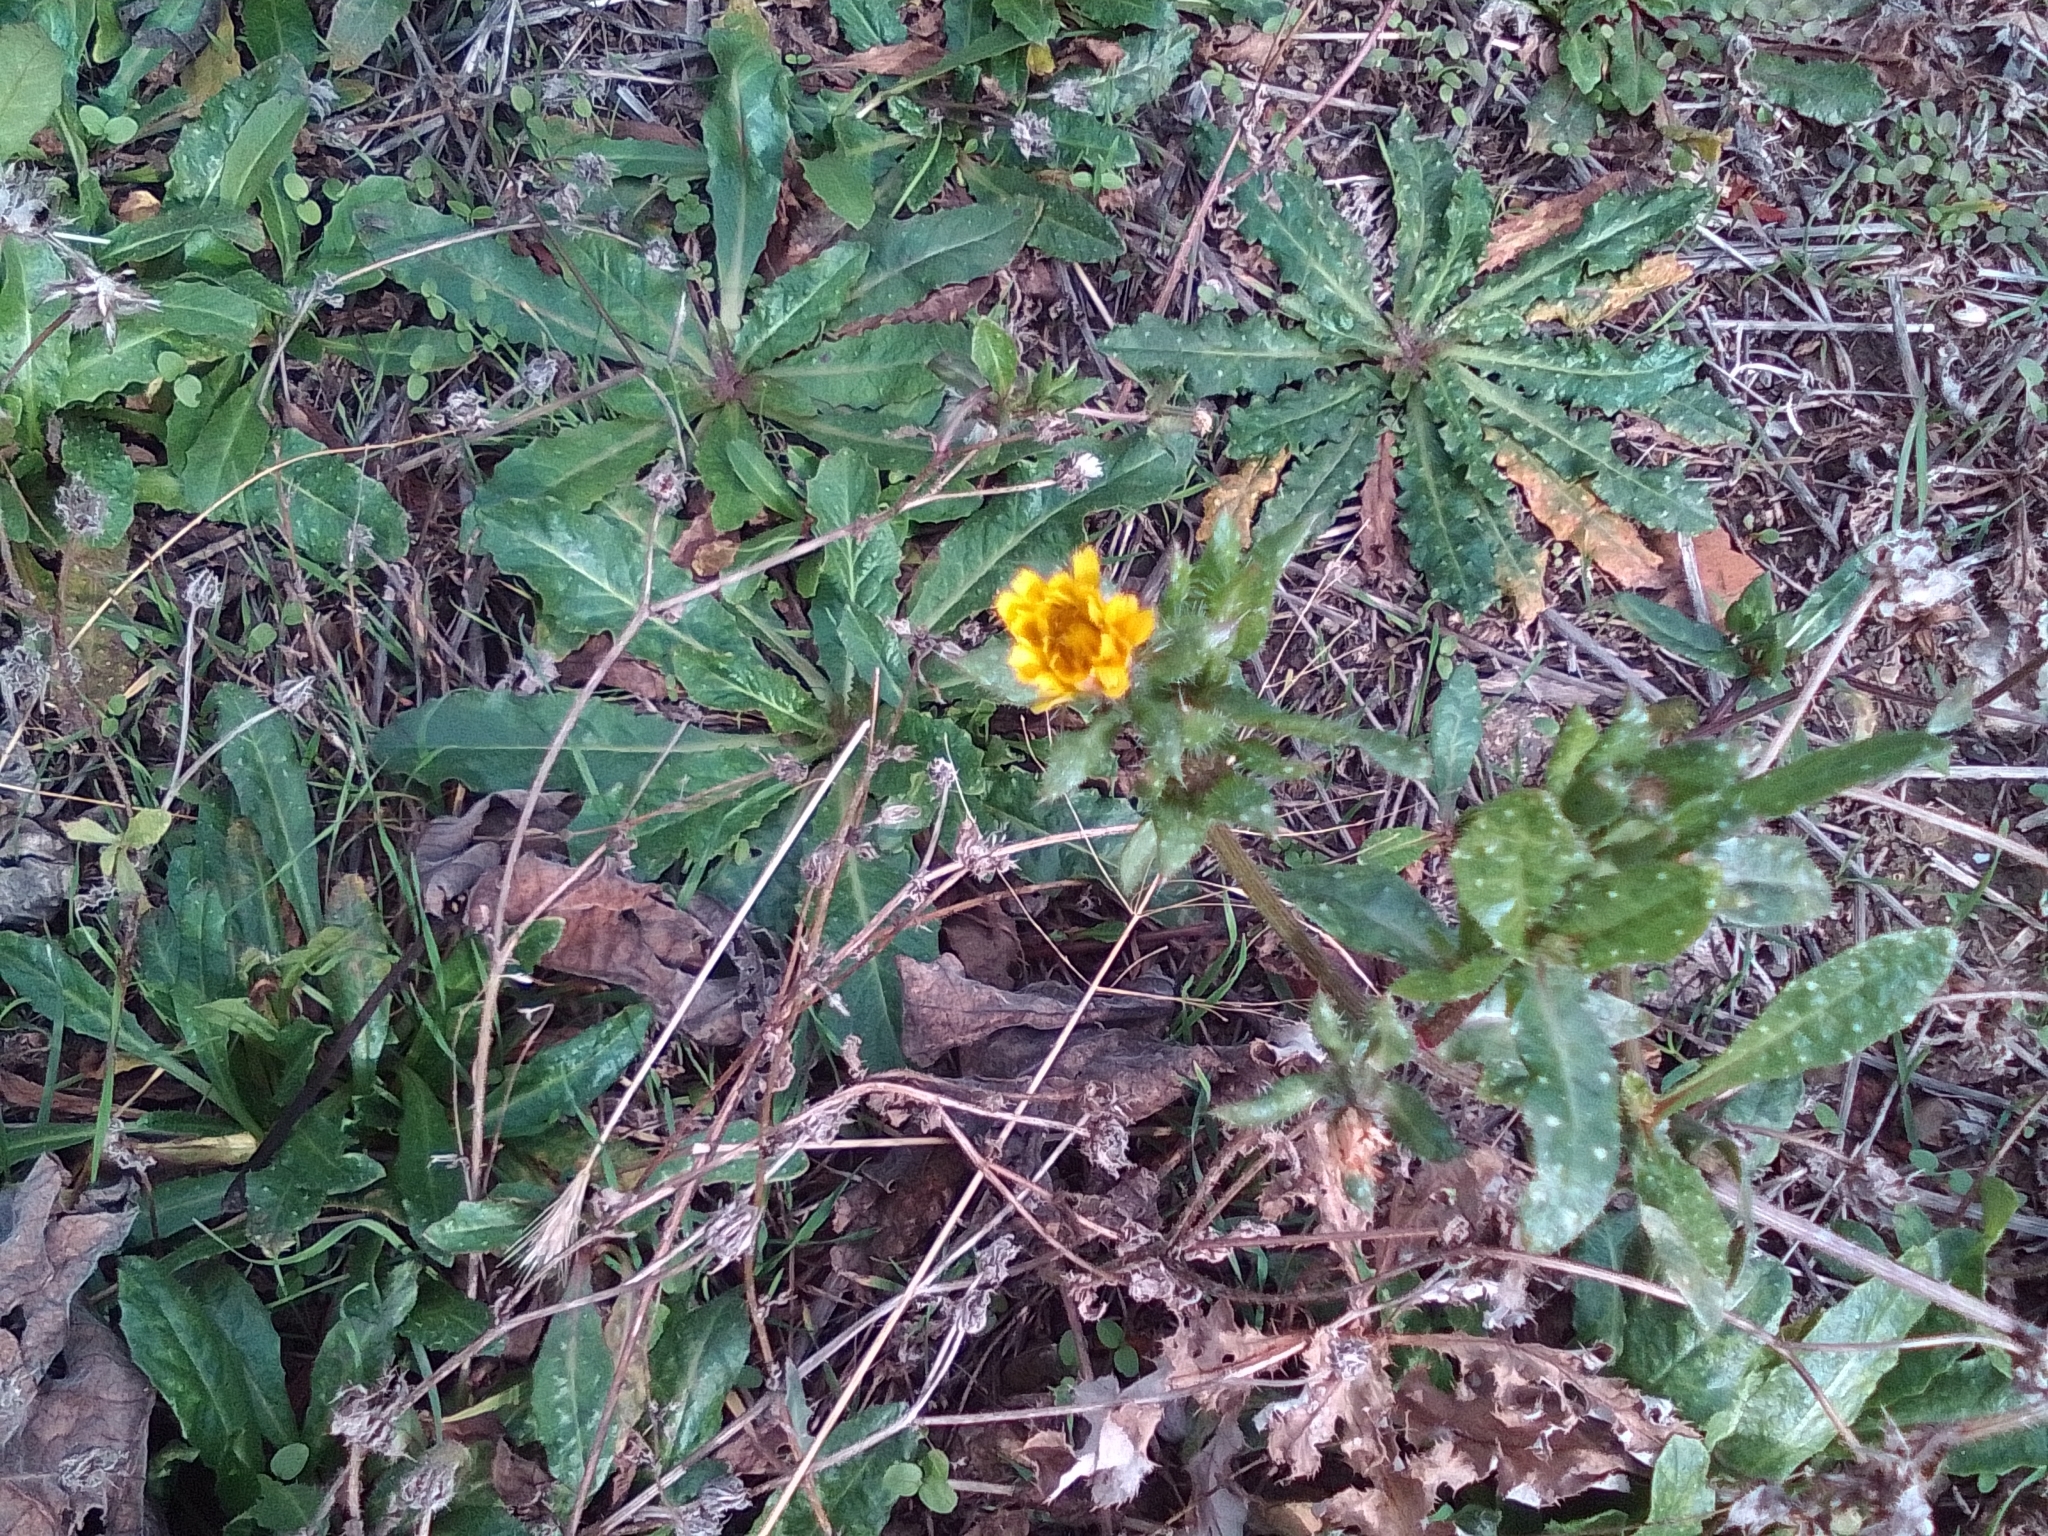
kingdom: Plantae
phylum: Tracheophyta
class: Magnoliopsida
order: Asterales
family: Asteraceae
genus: Helminthotheca
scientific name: Helminthotheca echioides
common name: Ox-tongue
